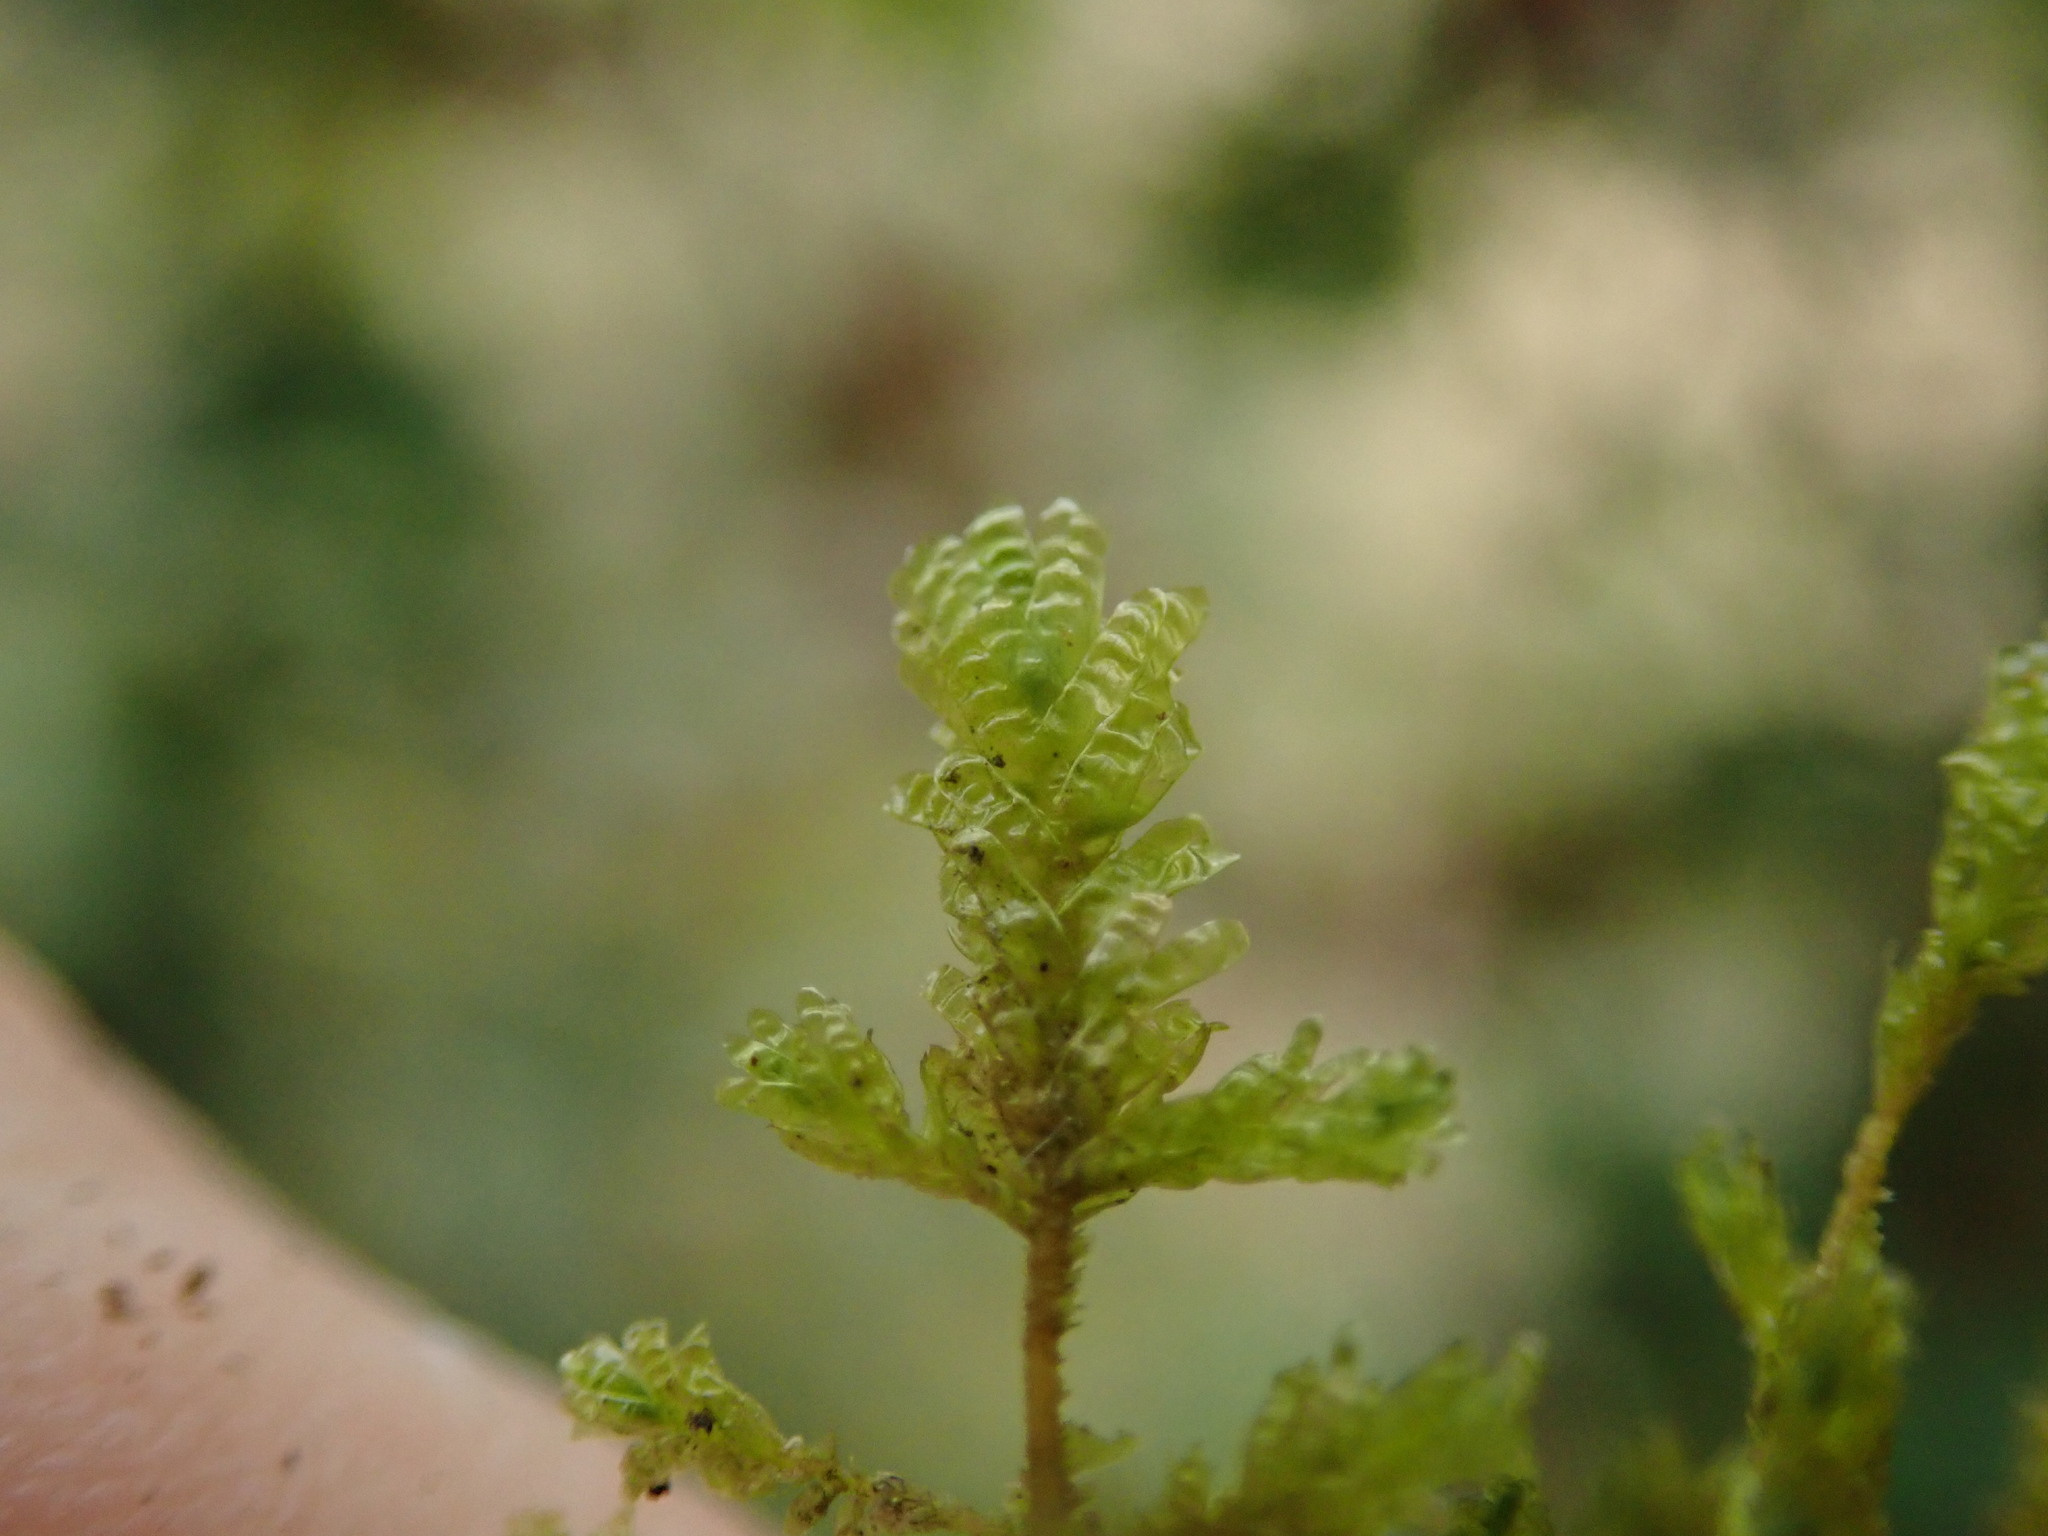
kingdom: Plantae
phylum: Bryophyta
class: Bryopsida
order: Hypnales
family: Neckeraceae
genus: Metaneckera
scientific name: Metaneckera menziesii
